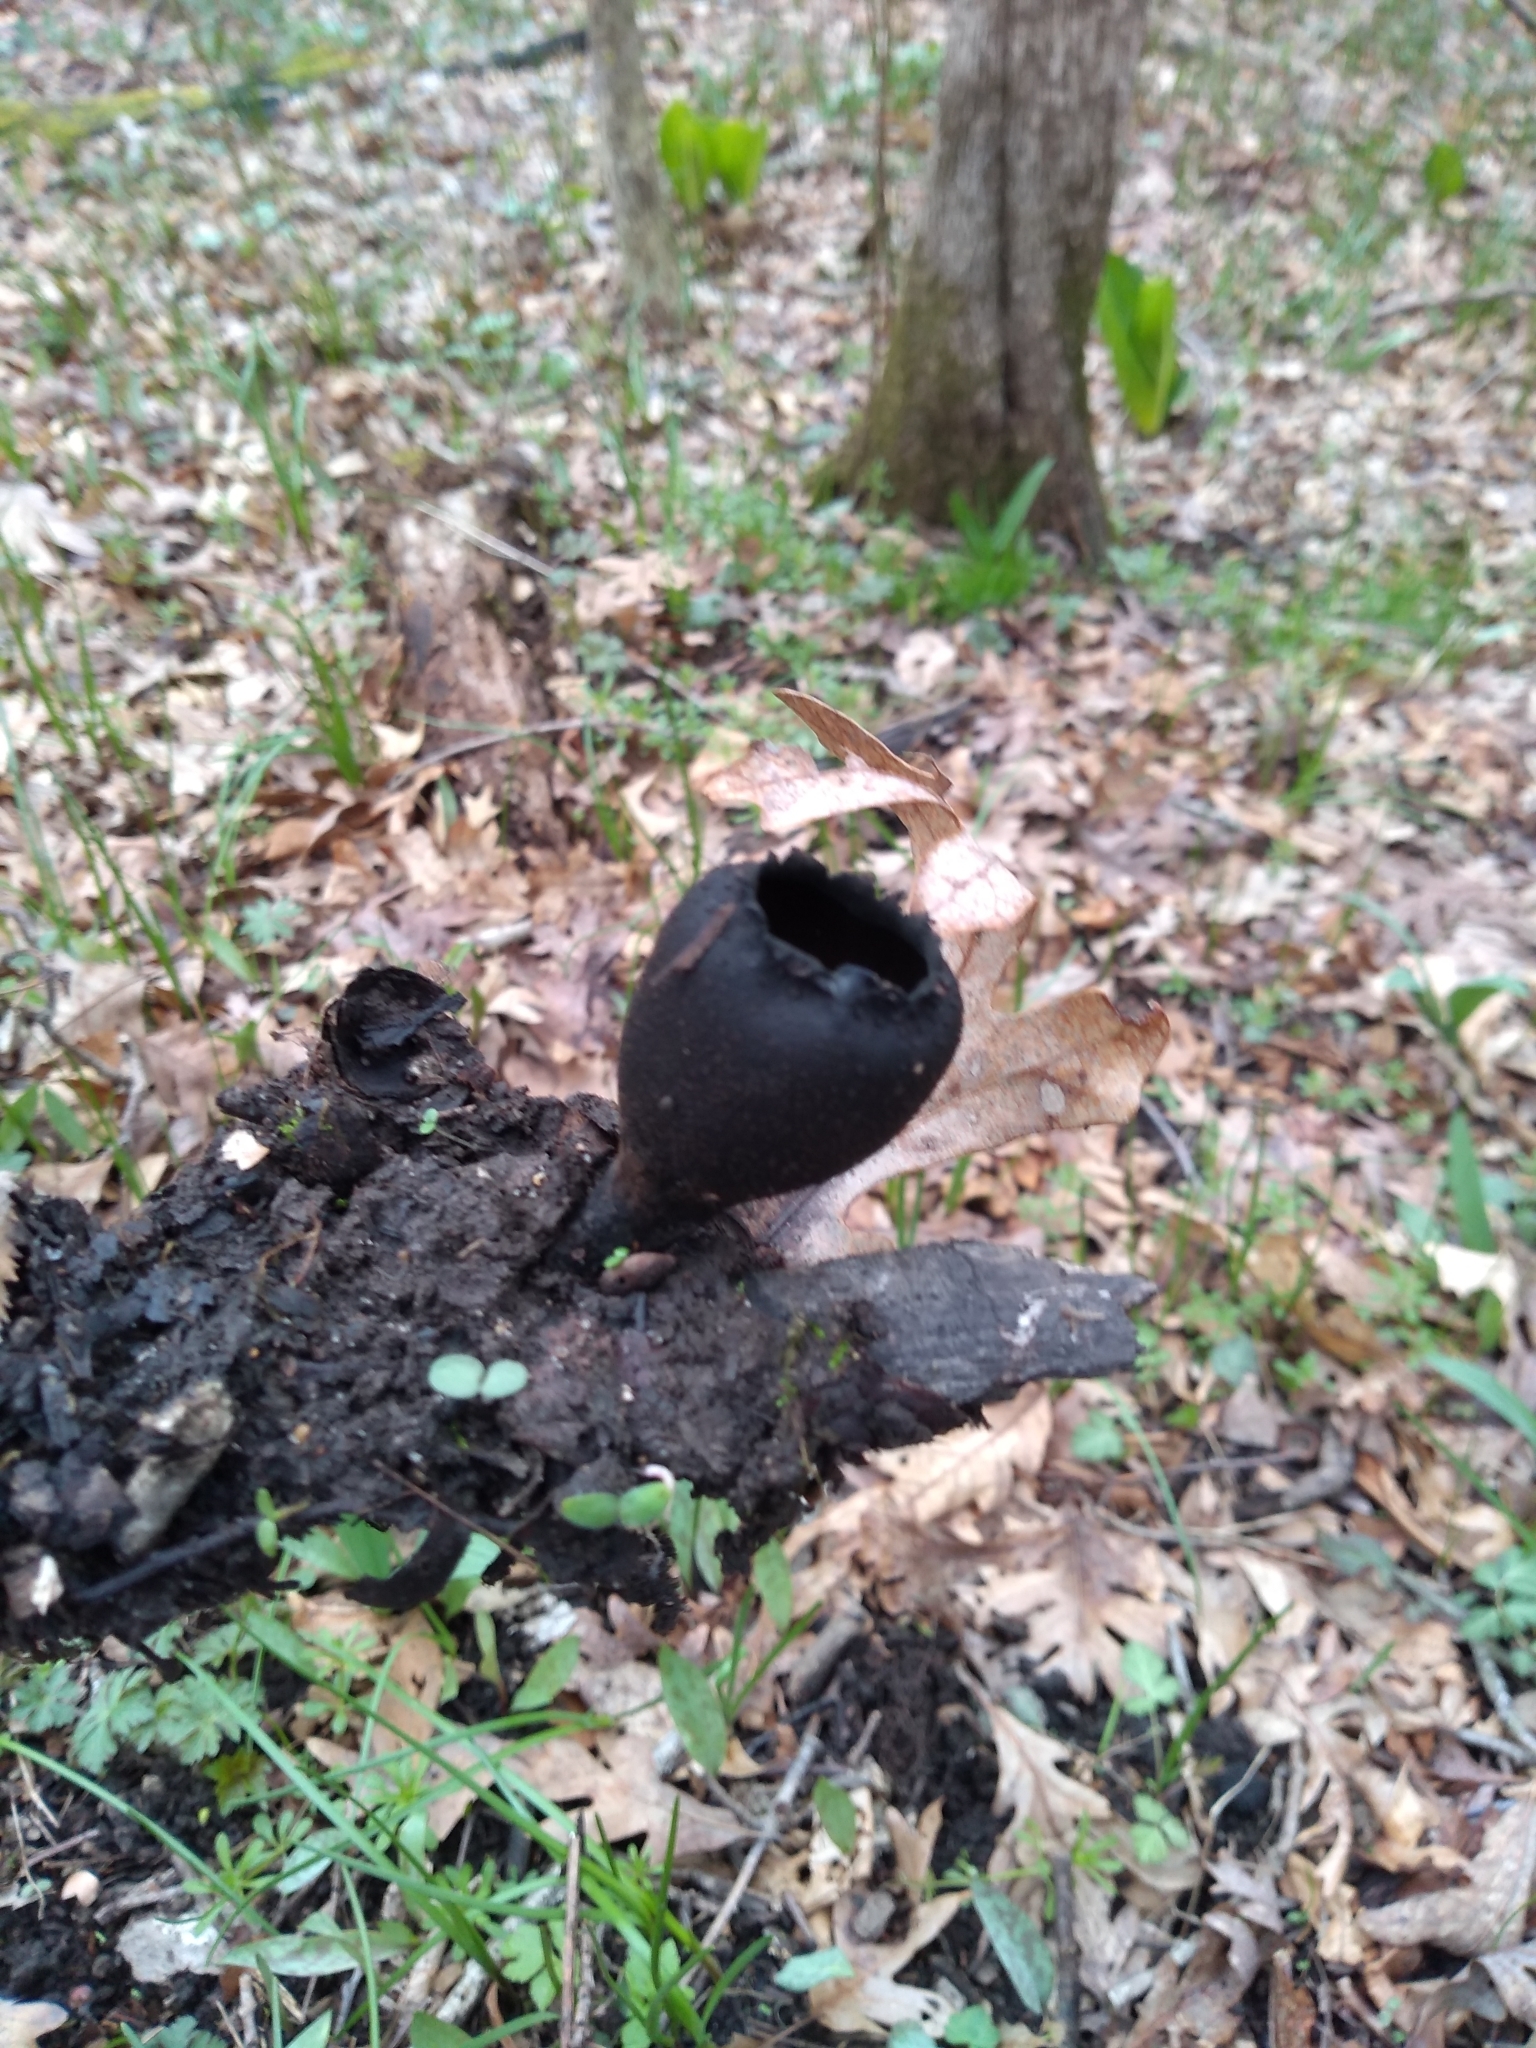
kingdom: Fungi
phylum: Ascomycota
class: Pezizomycetes
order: Pezizales
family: Sarcosomataceae
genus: Urnula
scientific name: Urnula craterium
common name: Devil's urn
